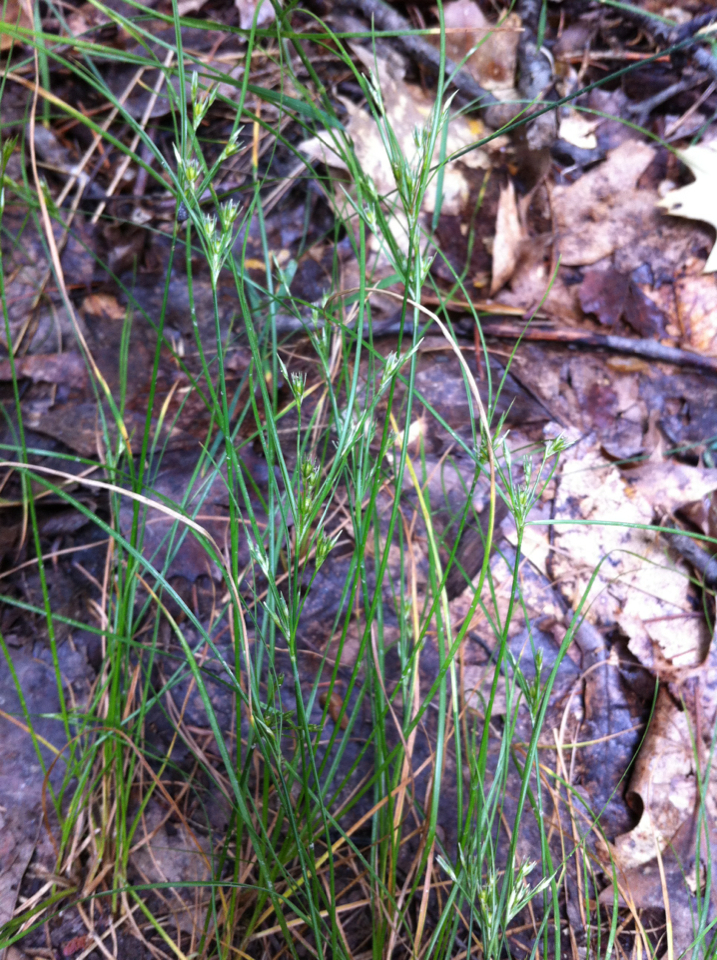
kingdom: Plantae
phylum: Tracheophyta
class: Liliopsida
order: Poales
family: Juncaceae
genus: Juncus
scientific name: Juncus tenuis
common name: Slender rush
